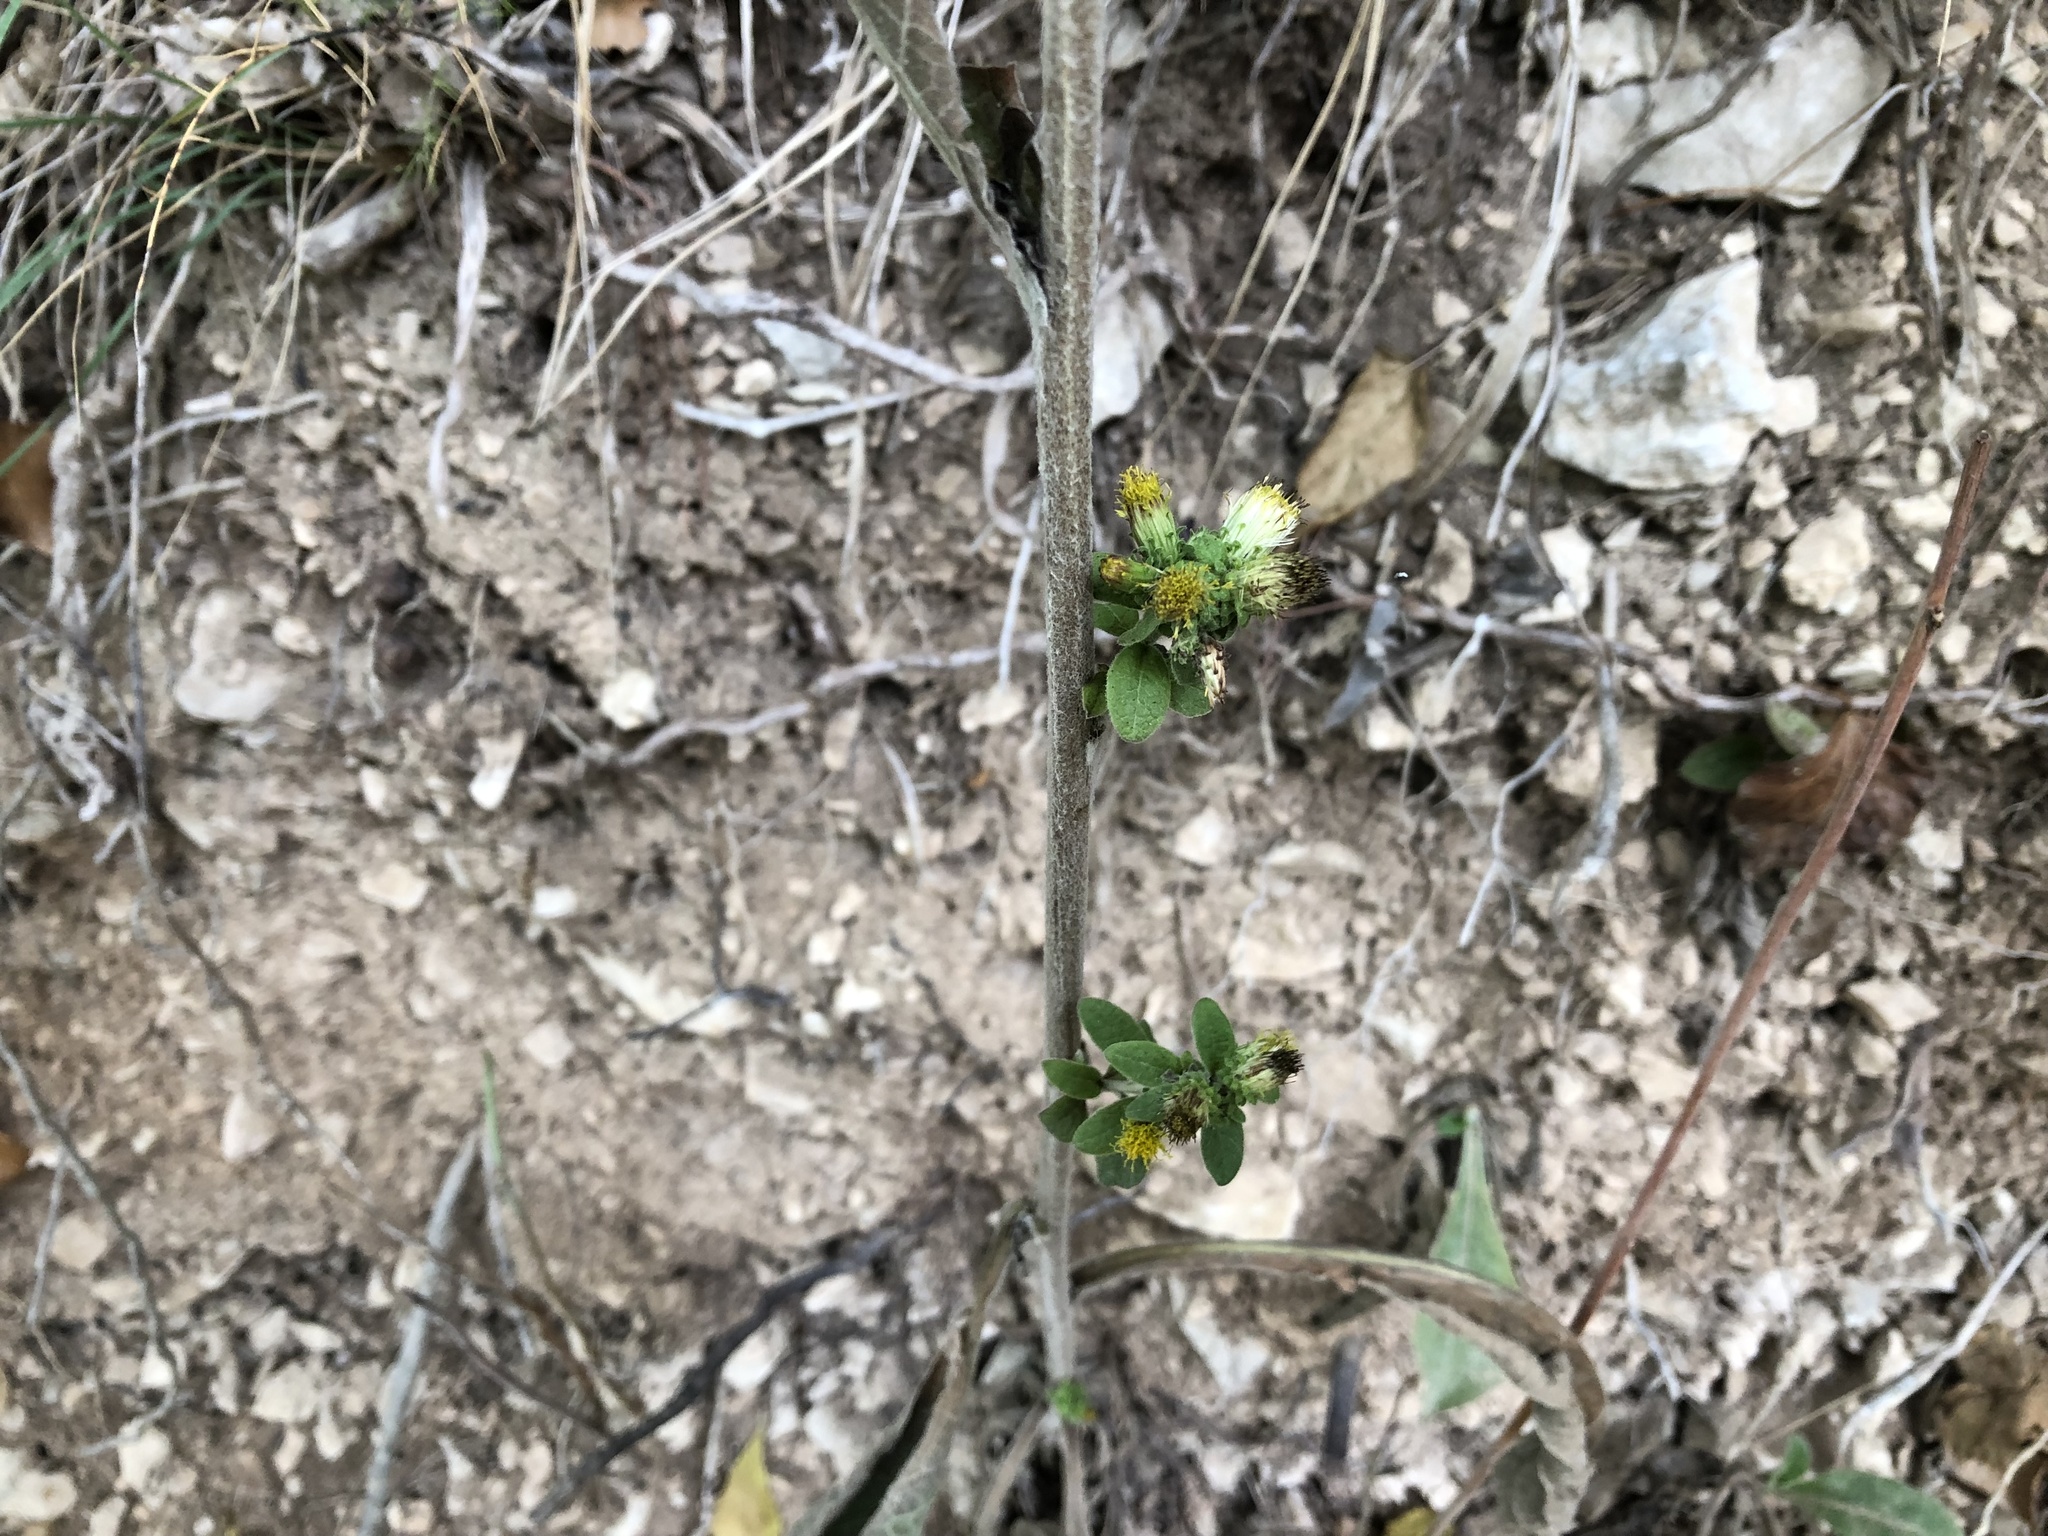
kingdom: Plantae
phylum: Tracheophyta
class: Magnoliopsida
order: Asterales
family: Asteraceae
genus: Pentanema
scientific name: Pentanema squarrosum
